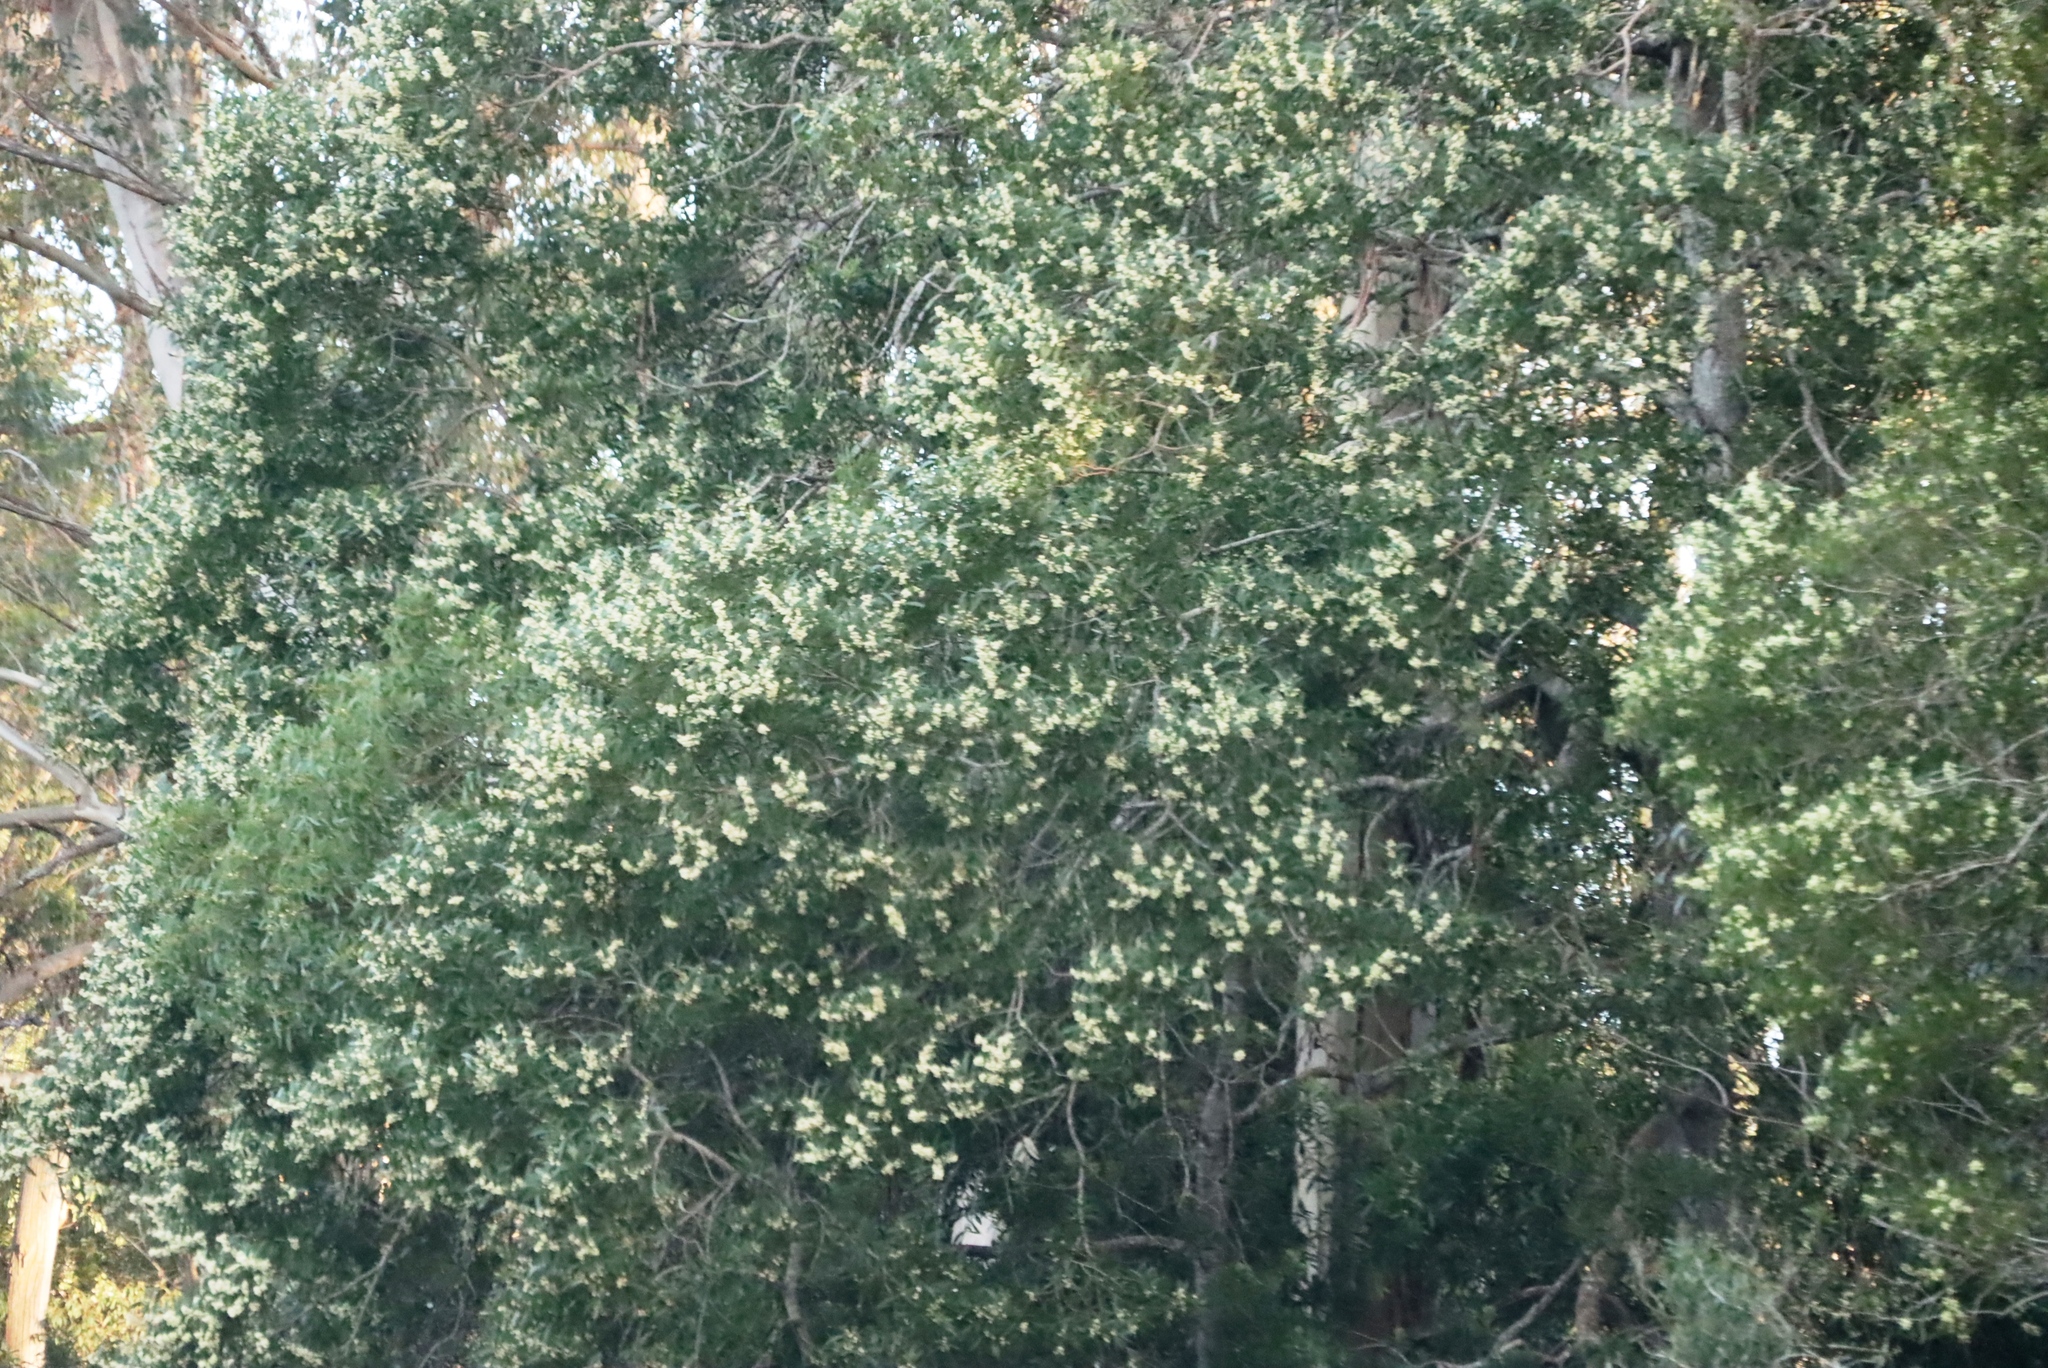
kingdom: Plantae
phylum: Tracheophyta
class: Magnoliopsida
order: Fabales
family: Fabaceae
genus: Acacia
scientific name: Acacia melanoxylon
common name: Blackwood
